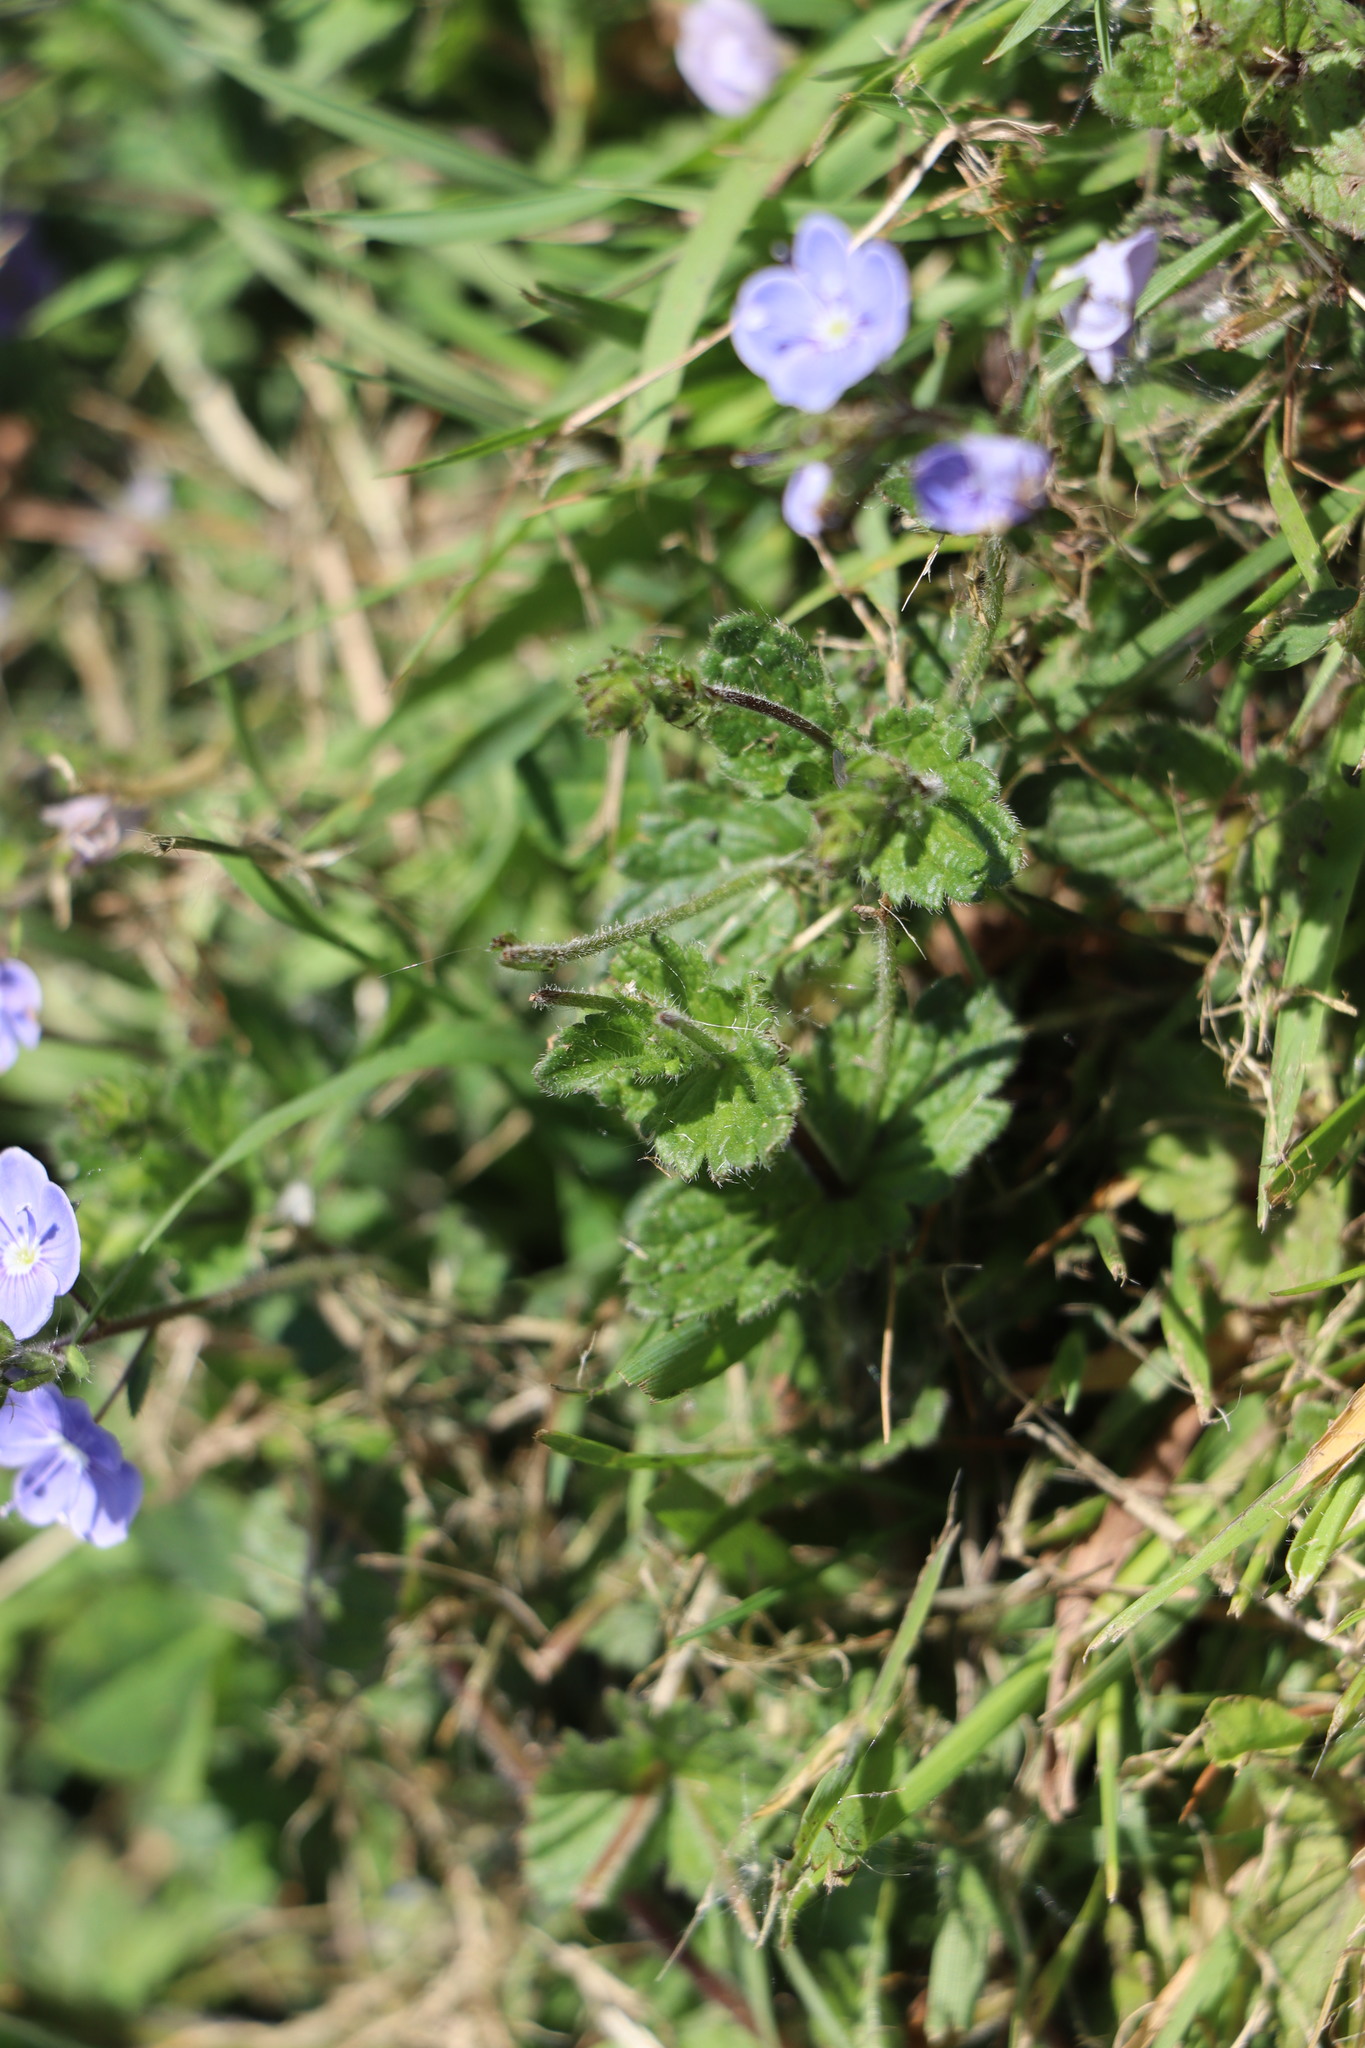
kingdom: Plantae
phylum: Tracheophyta
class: Magnoliopsida
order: Lamiales
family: Plantaginaceae
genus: Veronica
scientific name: Veronica chamaedrys
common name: Germander speedwell
